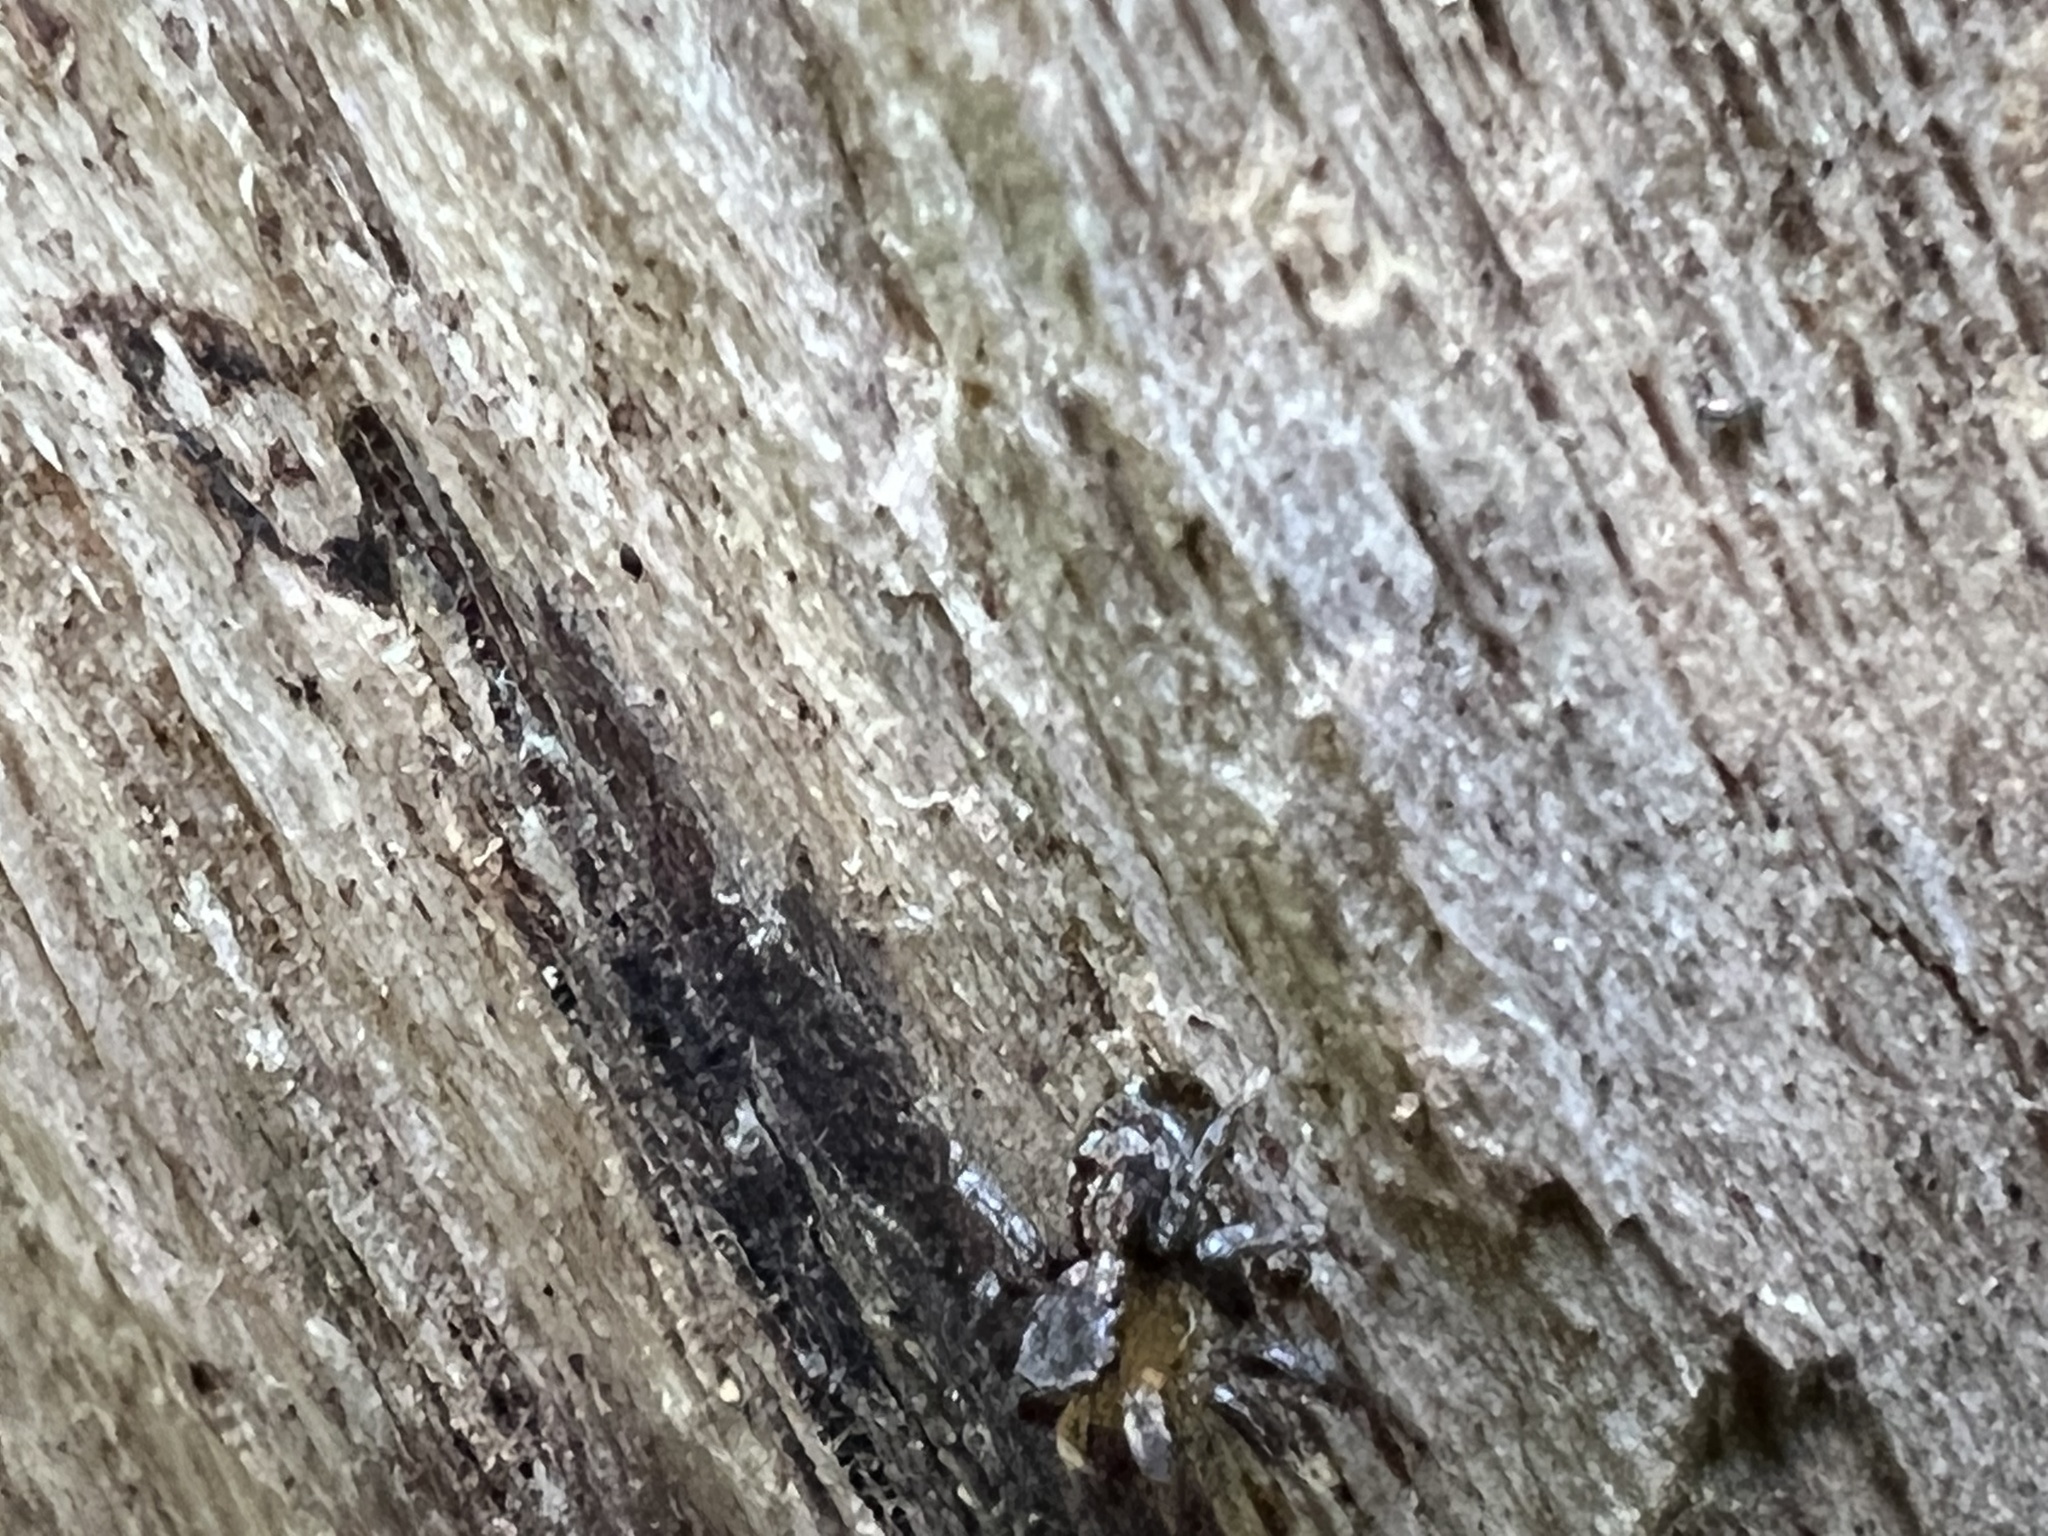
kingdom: Animalia
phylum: Arthropoda
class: Arachnida
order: Araneae
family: Salticidae
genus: Naphrys
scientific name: Naphrys pulex
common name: Flea jumping spider
